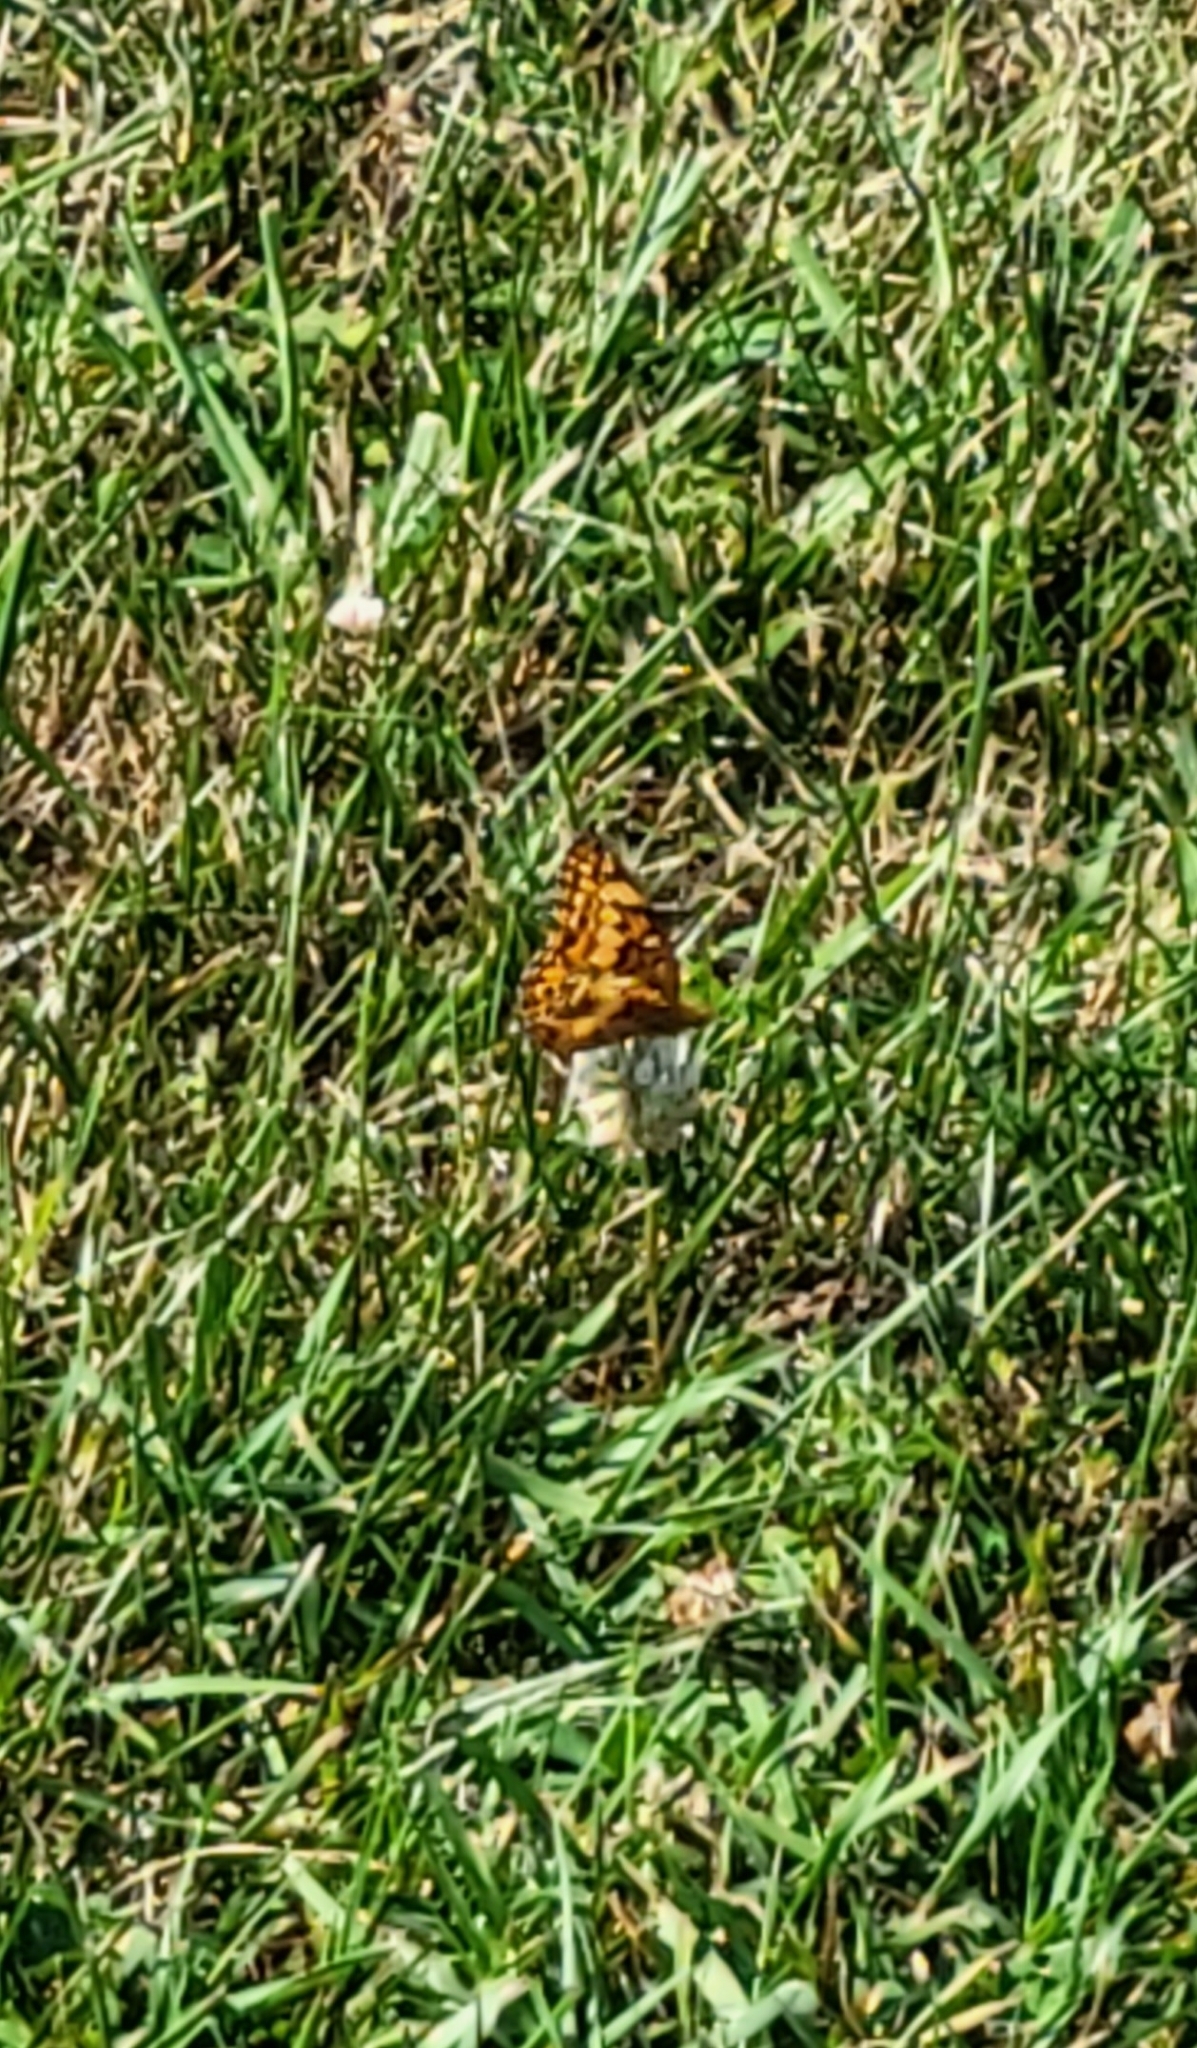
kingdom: Animalia
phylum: Arthropoda
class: Insecta
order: Lepidoptera
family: Nymphalidae
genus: Euptoieta
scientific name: Euptoieta claudia
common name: Variegated fritillary
